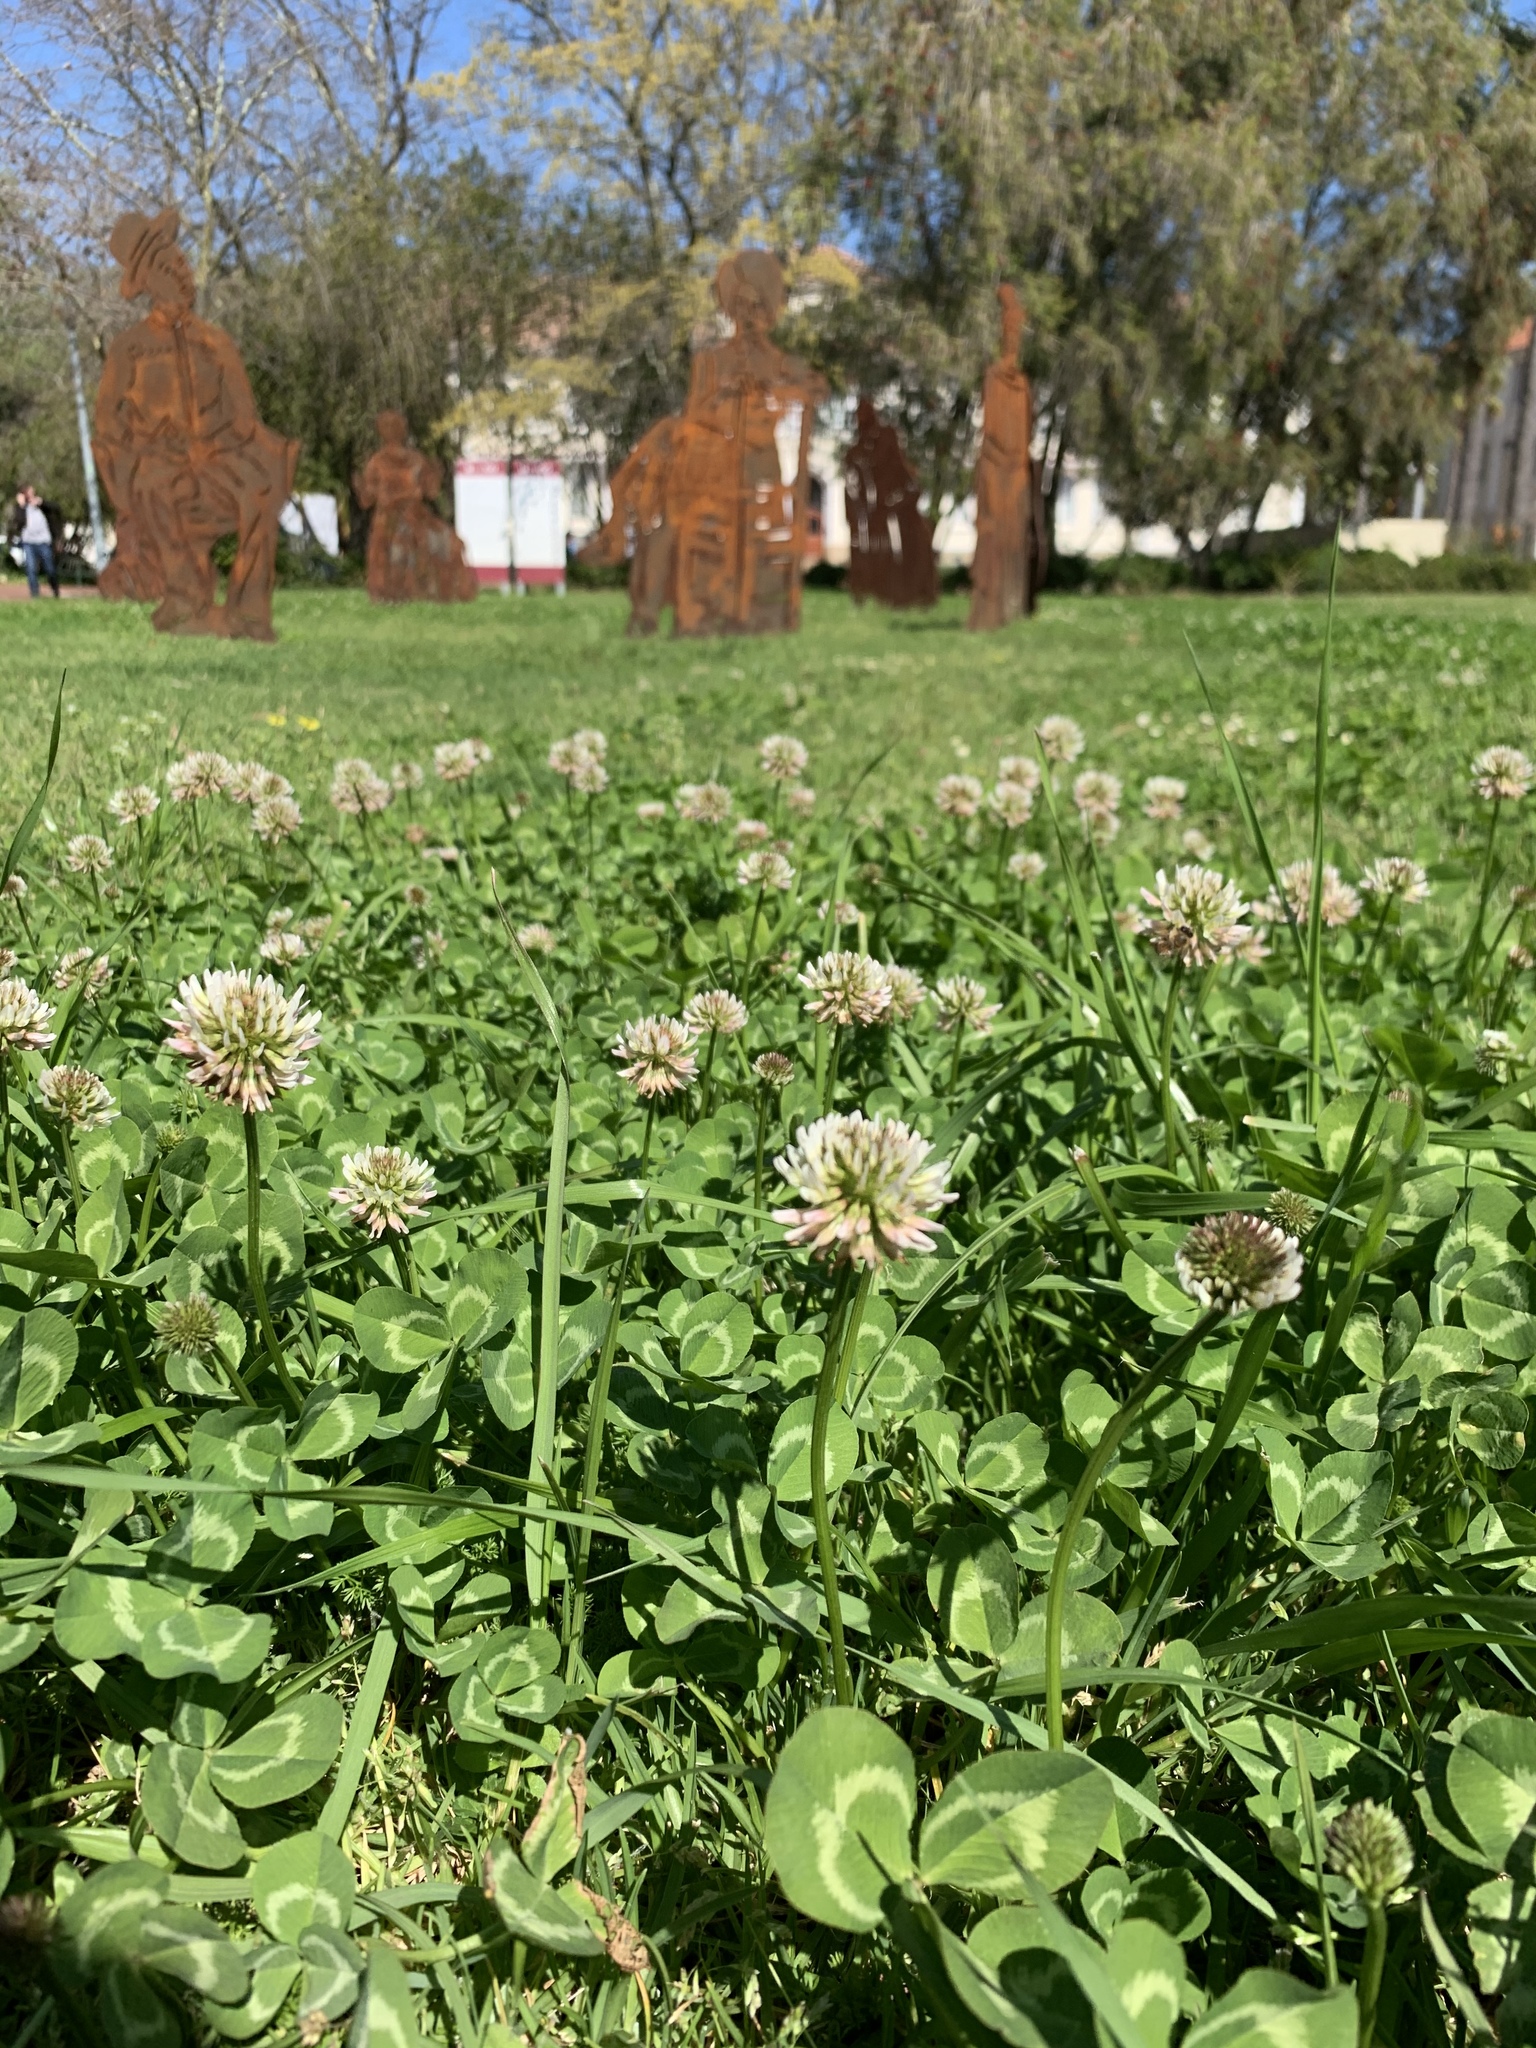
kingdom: Plantae
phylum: Tracheophyta
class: Magnoliopsida
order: Fabales
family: Fabaceae
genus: Trifolium
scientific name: Trifolium repens
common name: White clover
